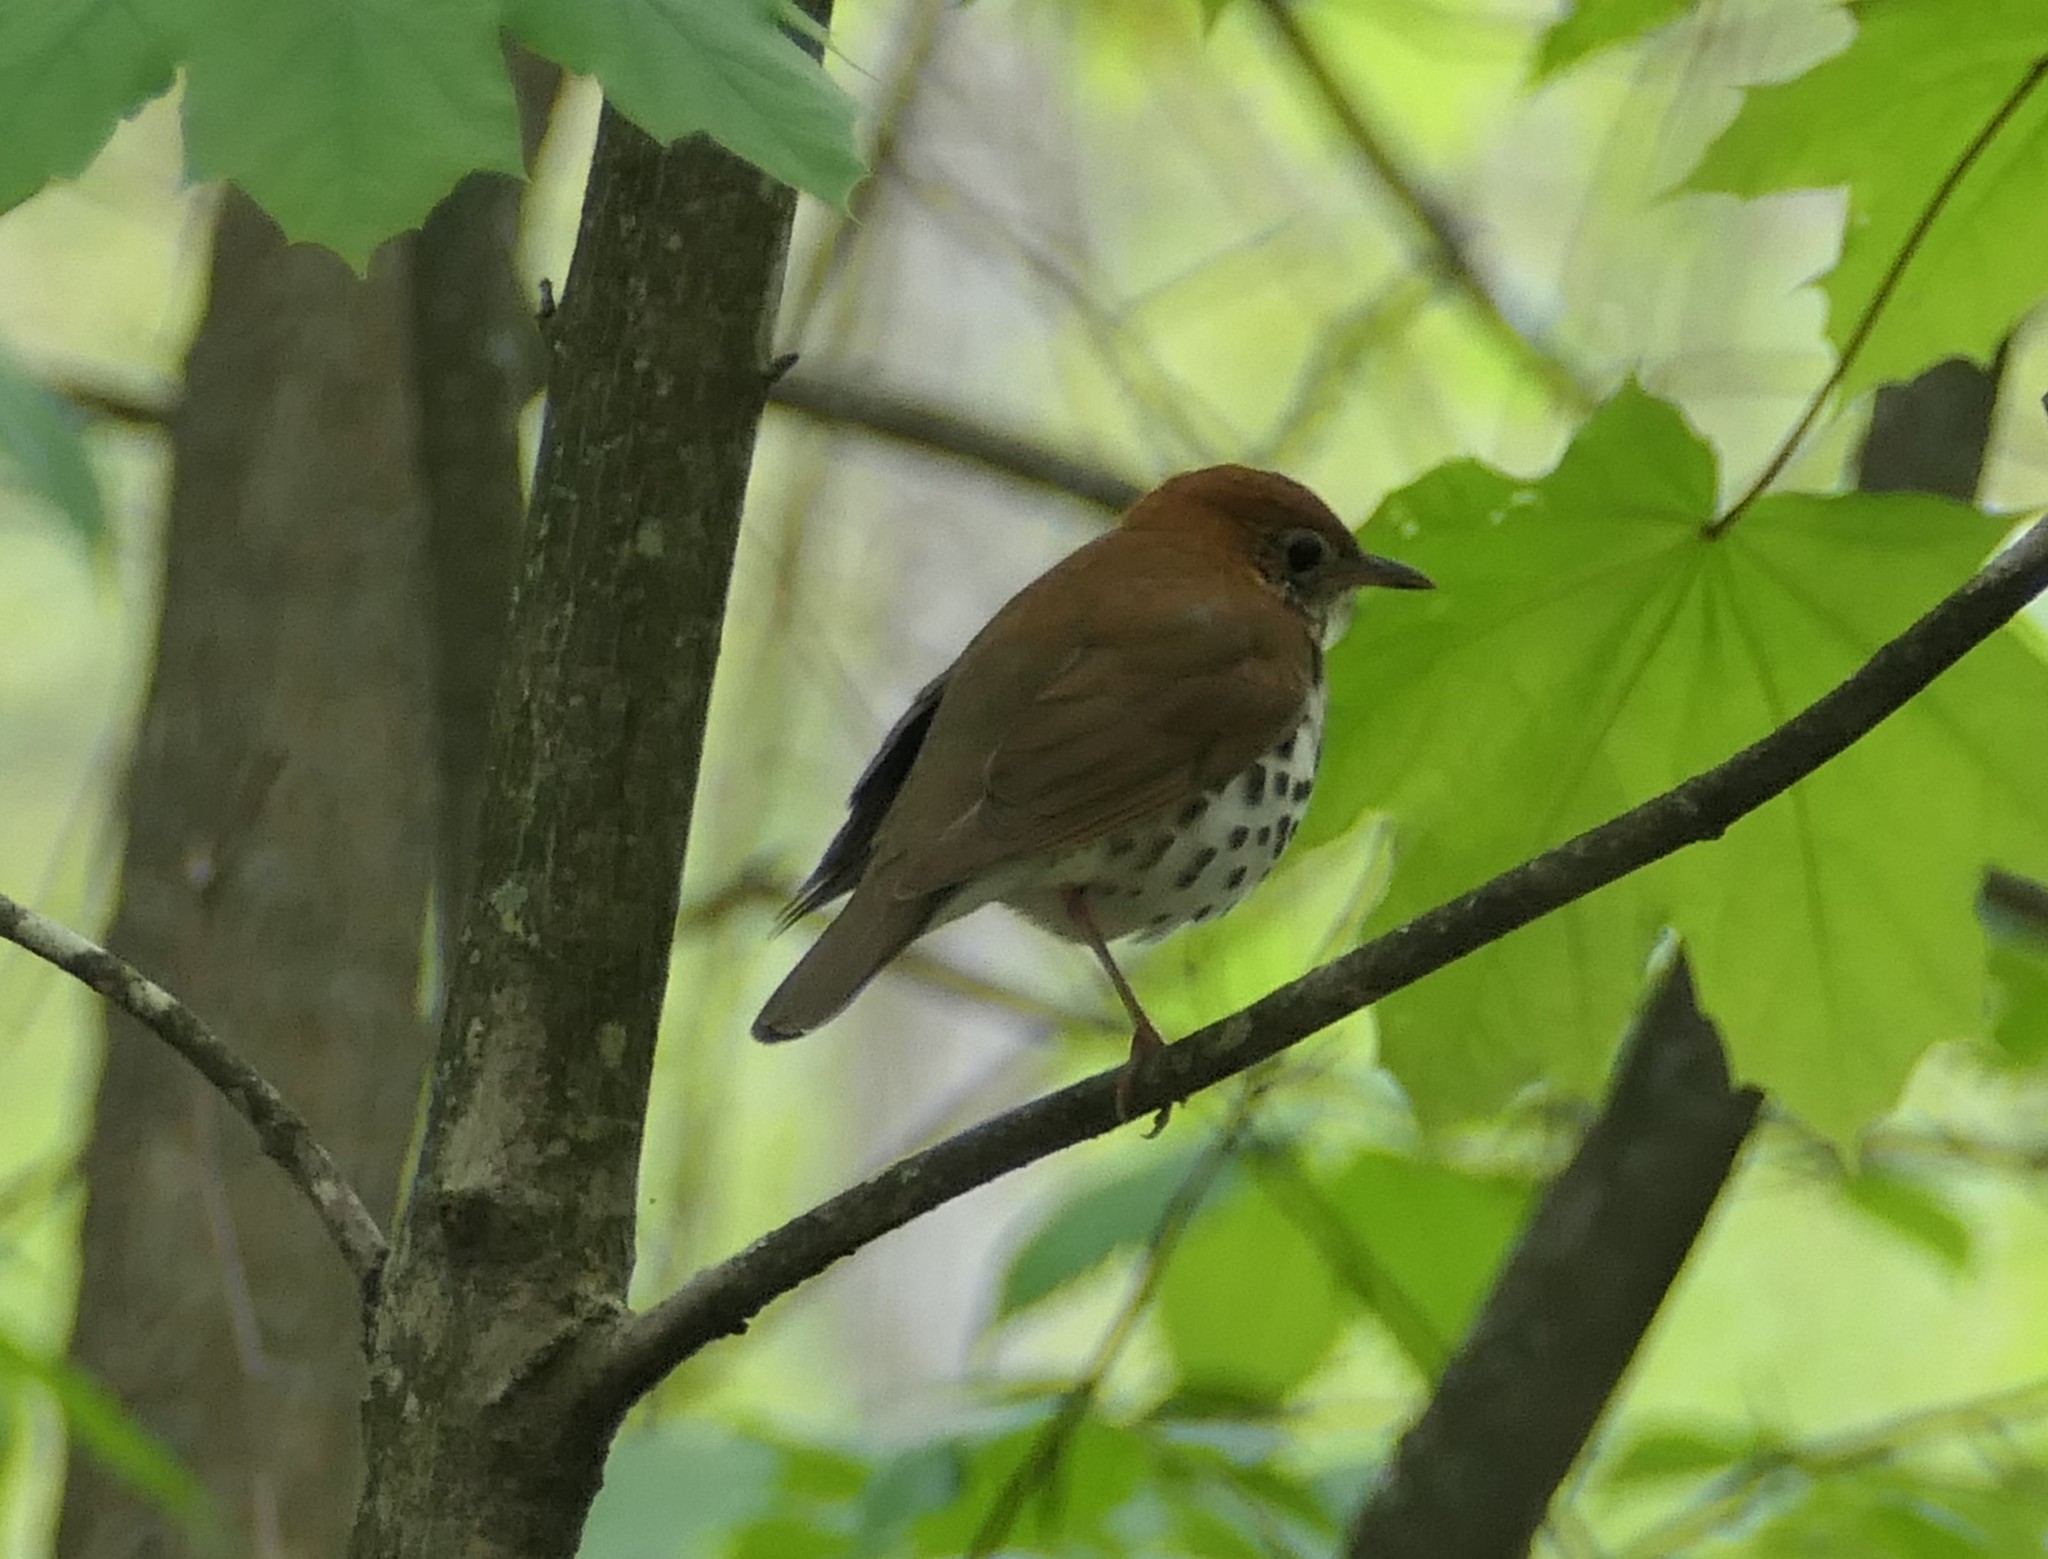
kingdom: Animalia
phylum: Chordata
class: Aves
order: Passeriformes
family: Turdidae
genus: Hylocichla
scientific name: Hylocichla mustelina
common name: Wood thrush
